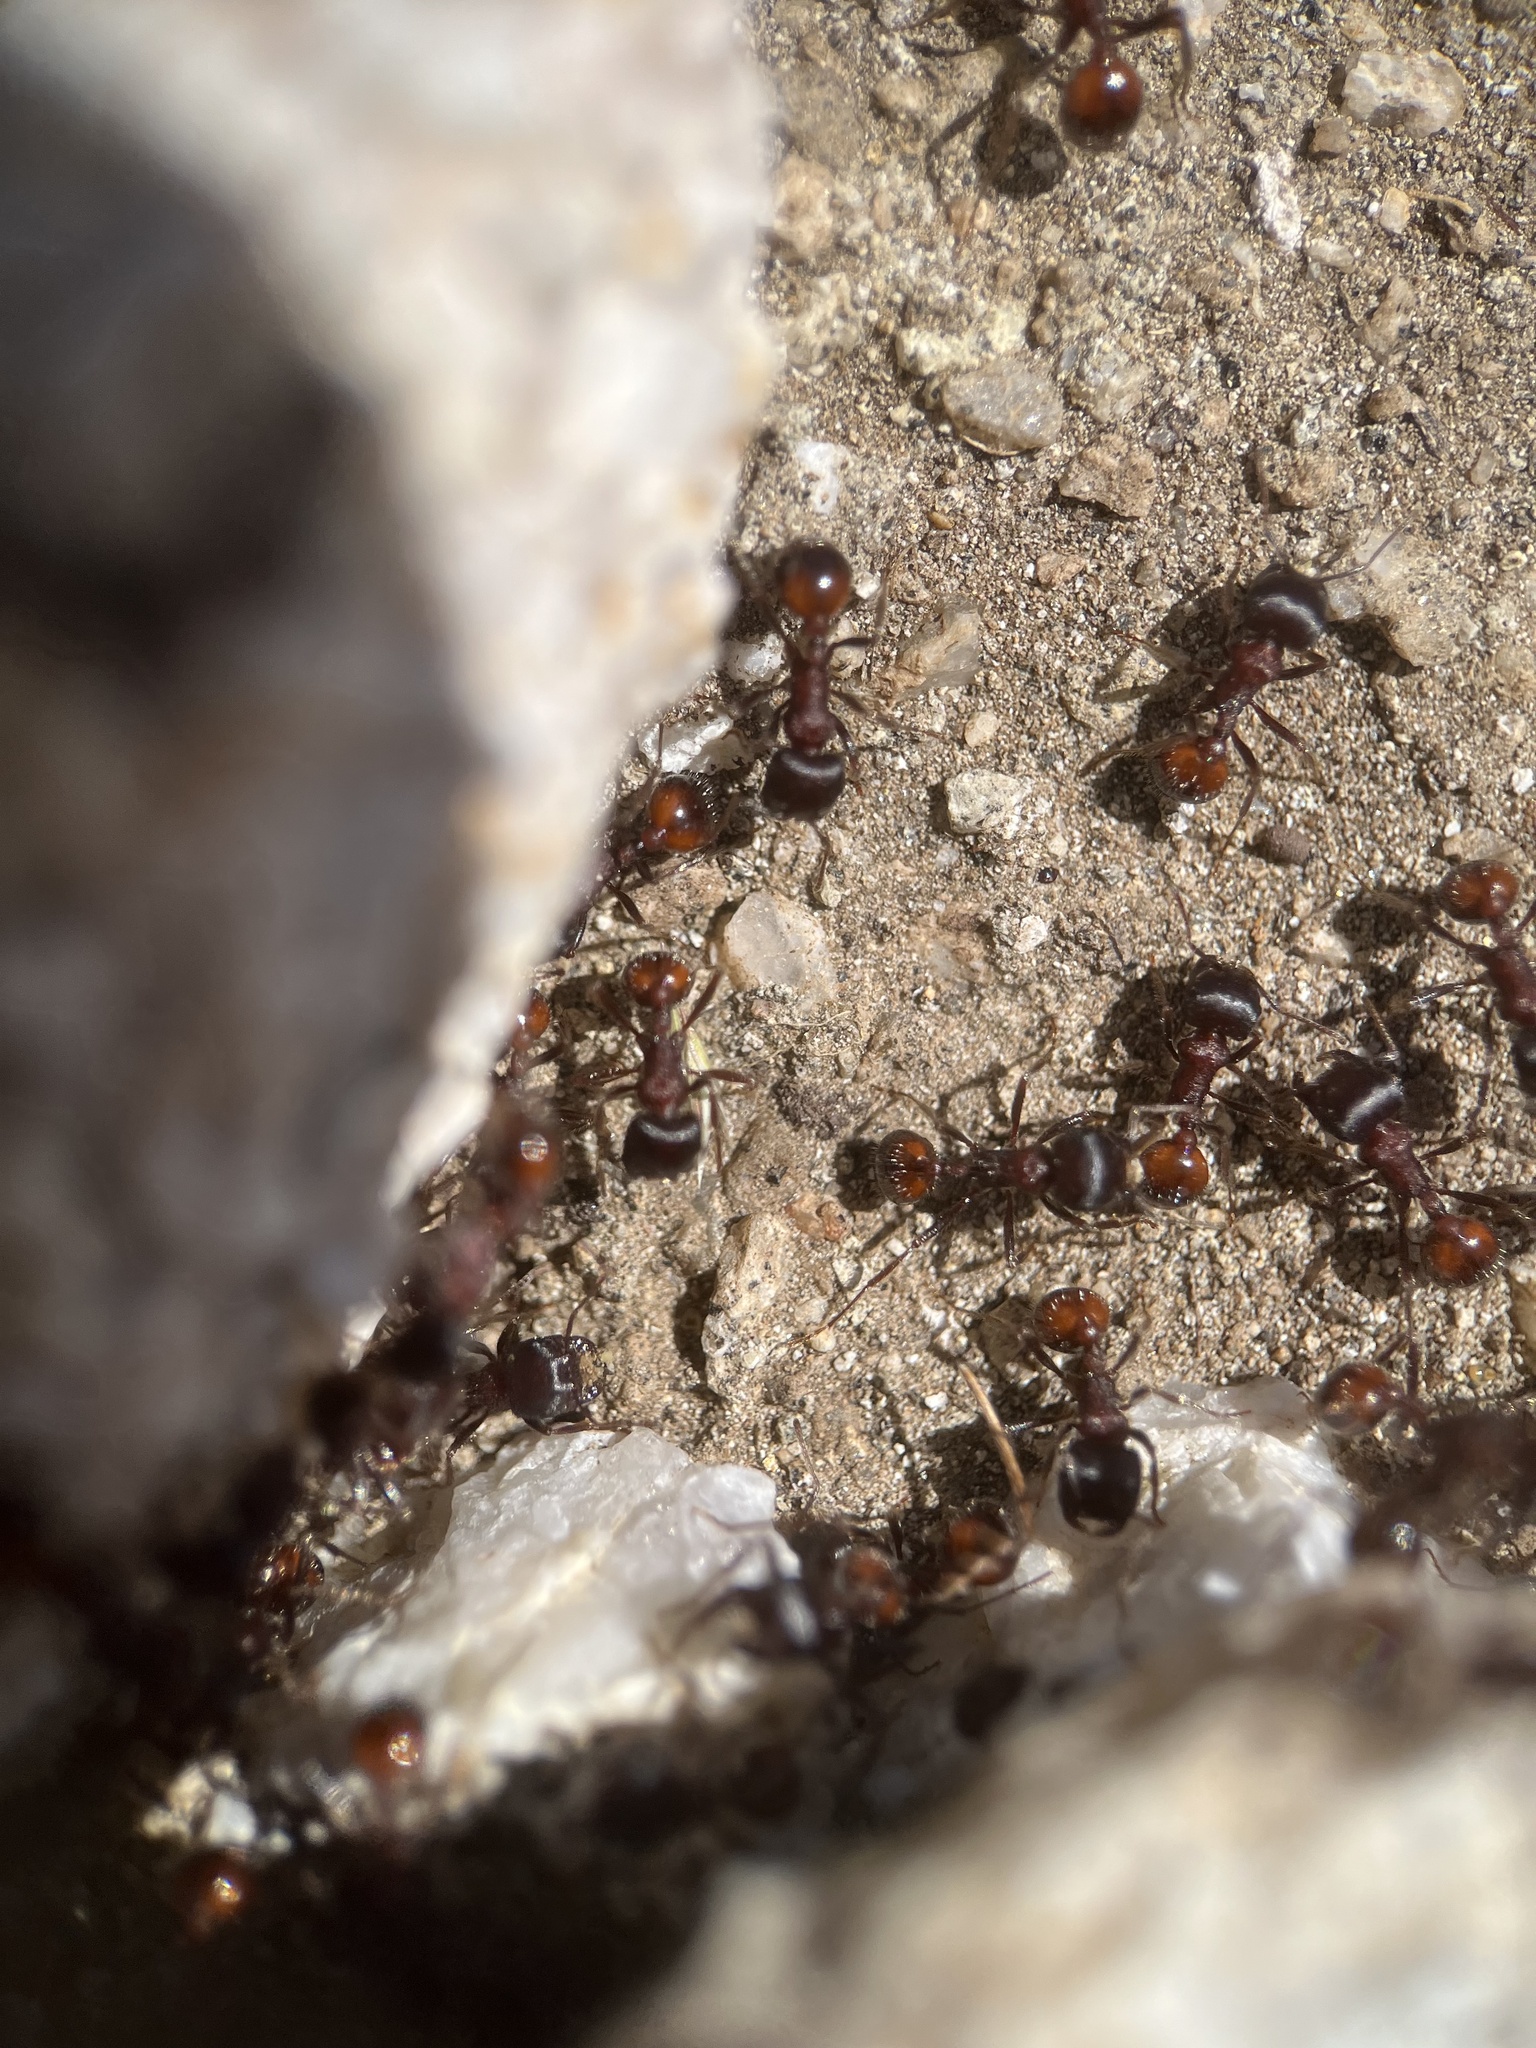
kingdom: Animalia
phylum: Arthropoda
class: Insecta
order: Hymenoptera
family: Formicidae
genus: Pogonomyrmex
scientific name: Pogonomyrmex rugosus
